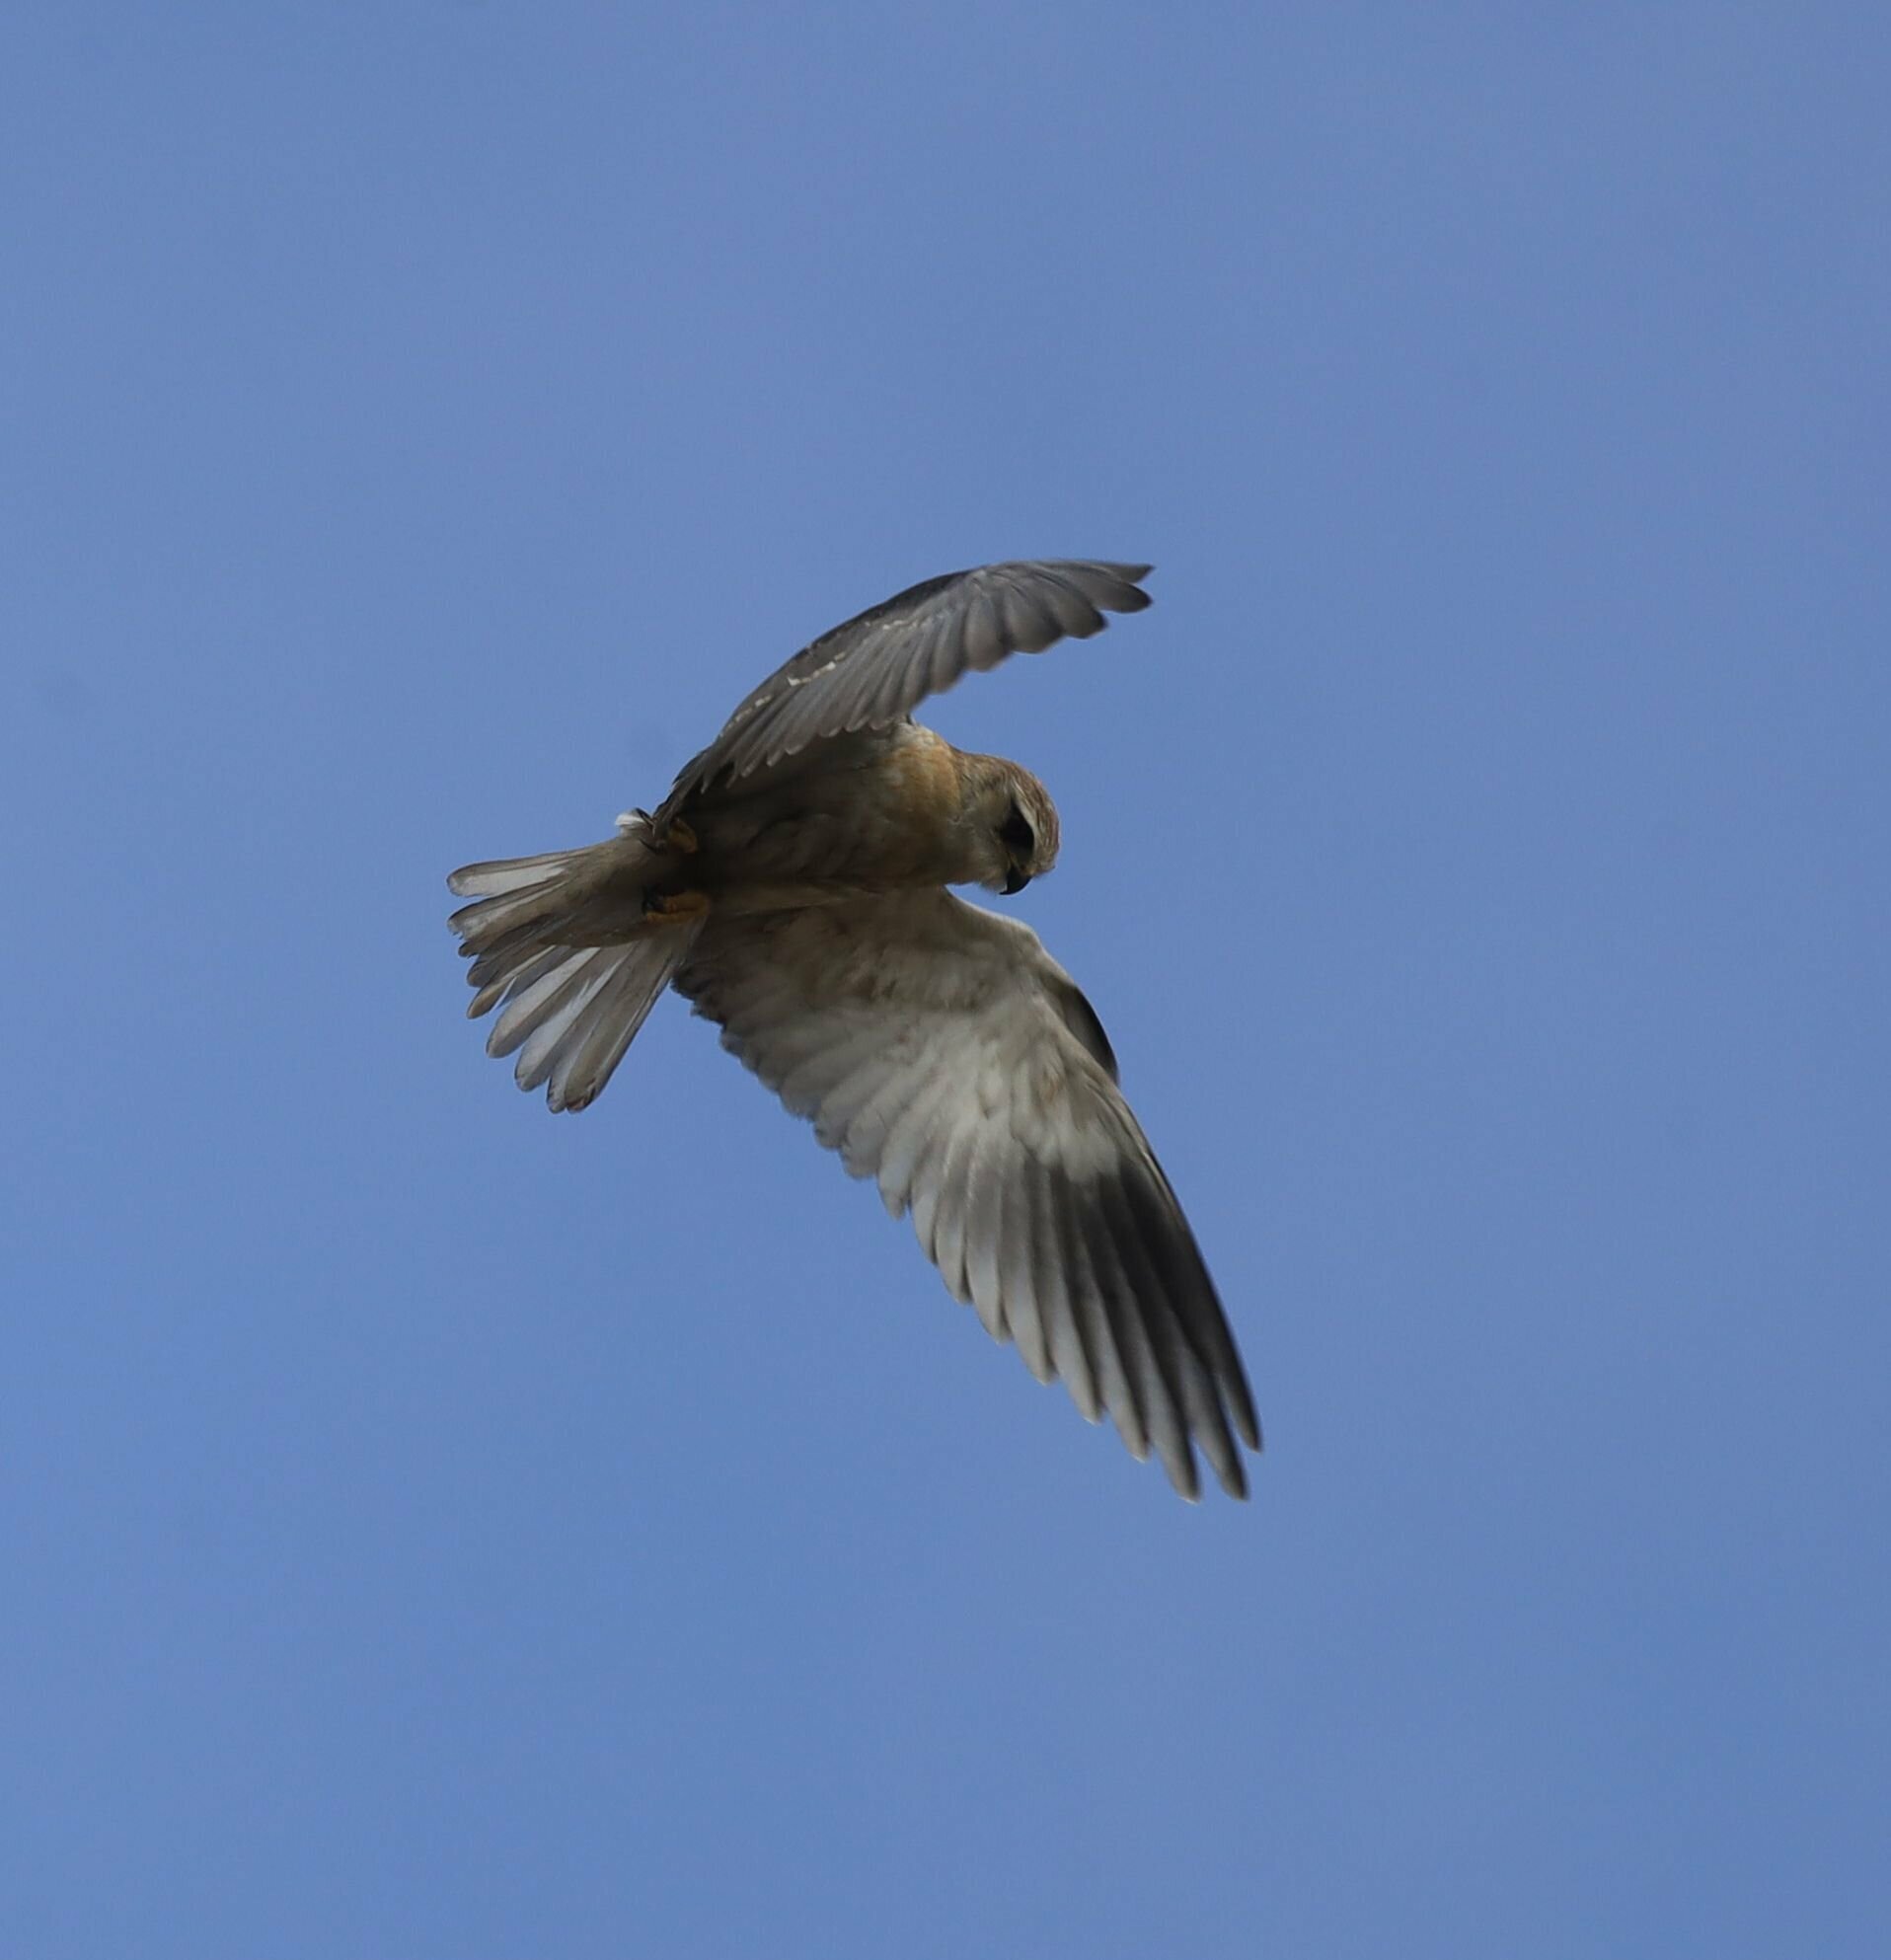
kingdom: Animalia
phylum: Chordata
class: Aves
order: Accipitriformes
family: Accipitridae
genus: Elanus
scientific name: Elanus caeruleus
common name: Black-winged kite
